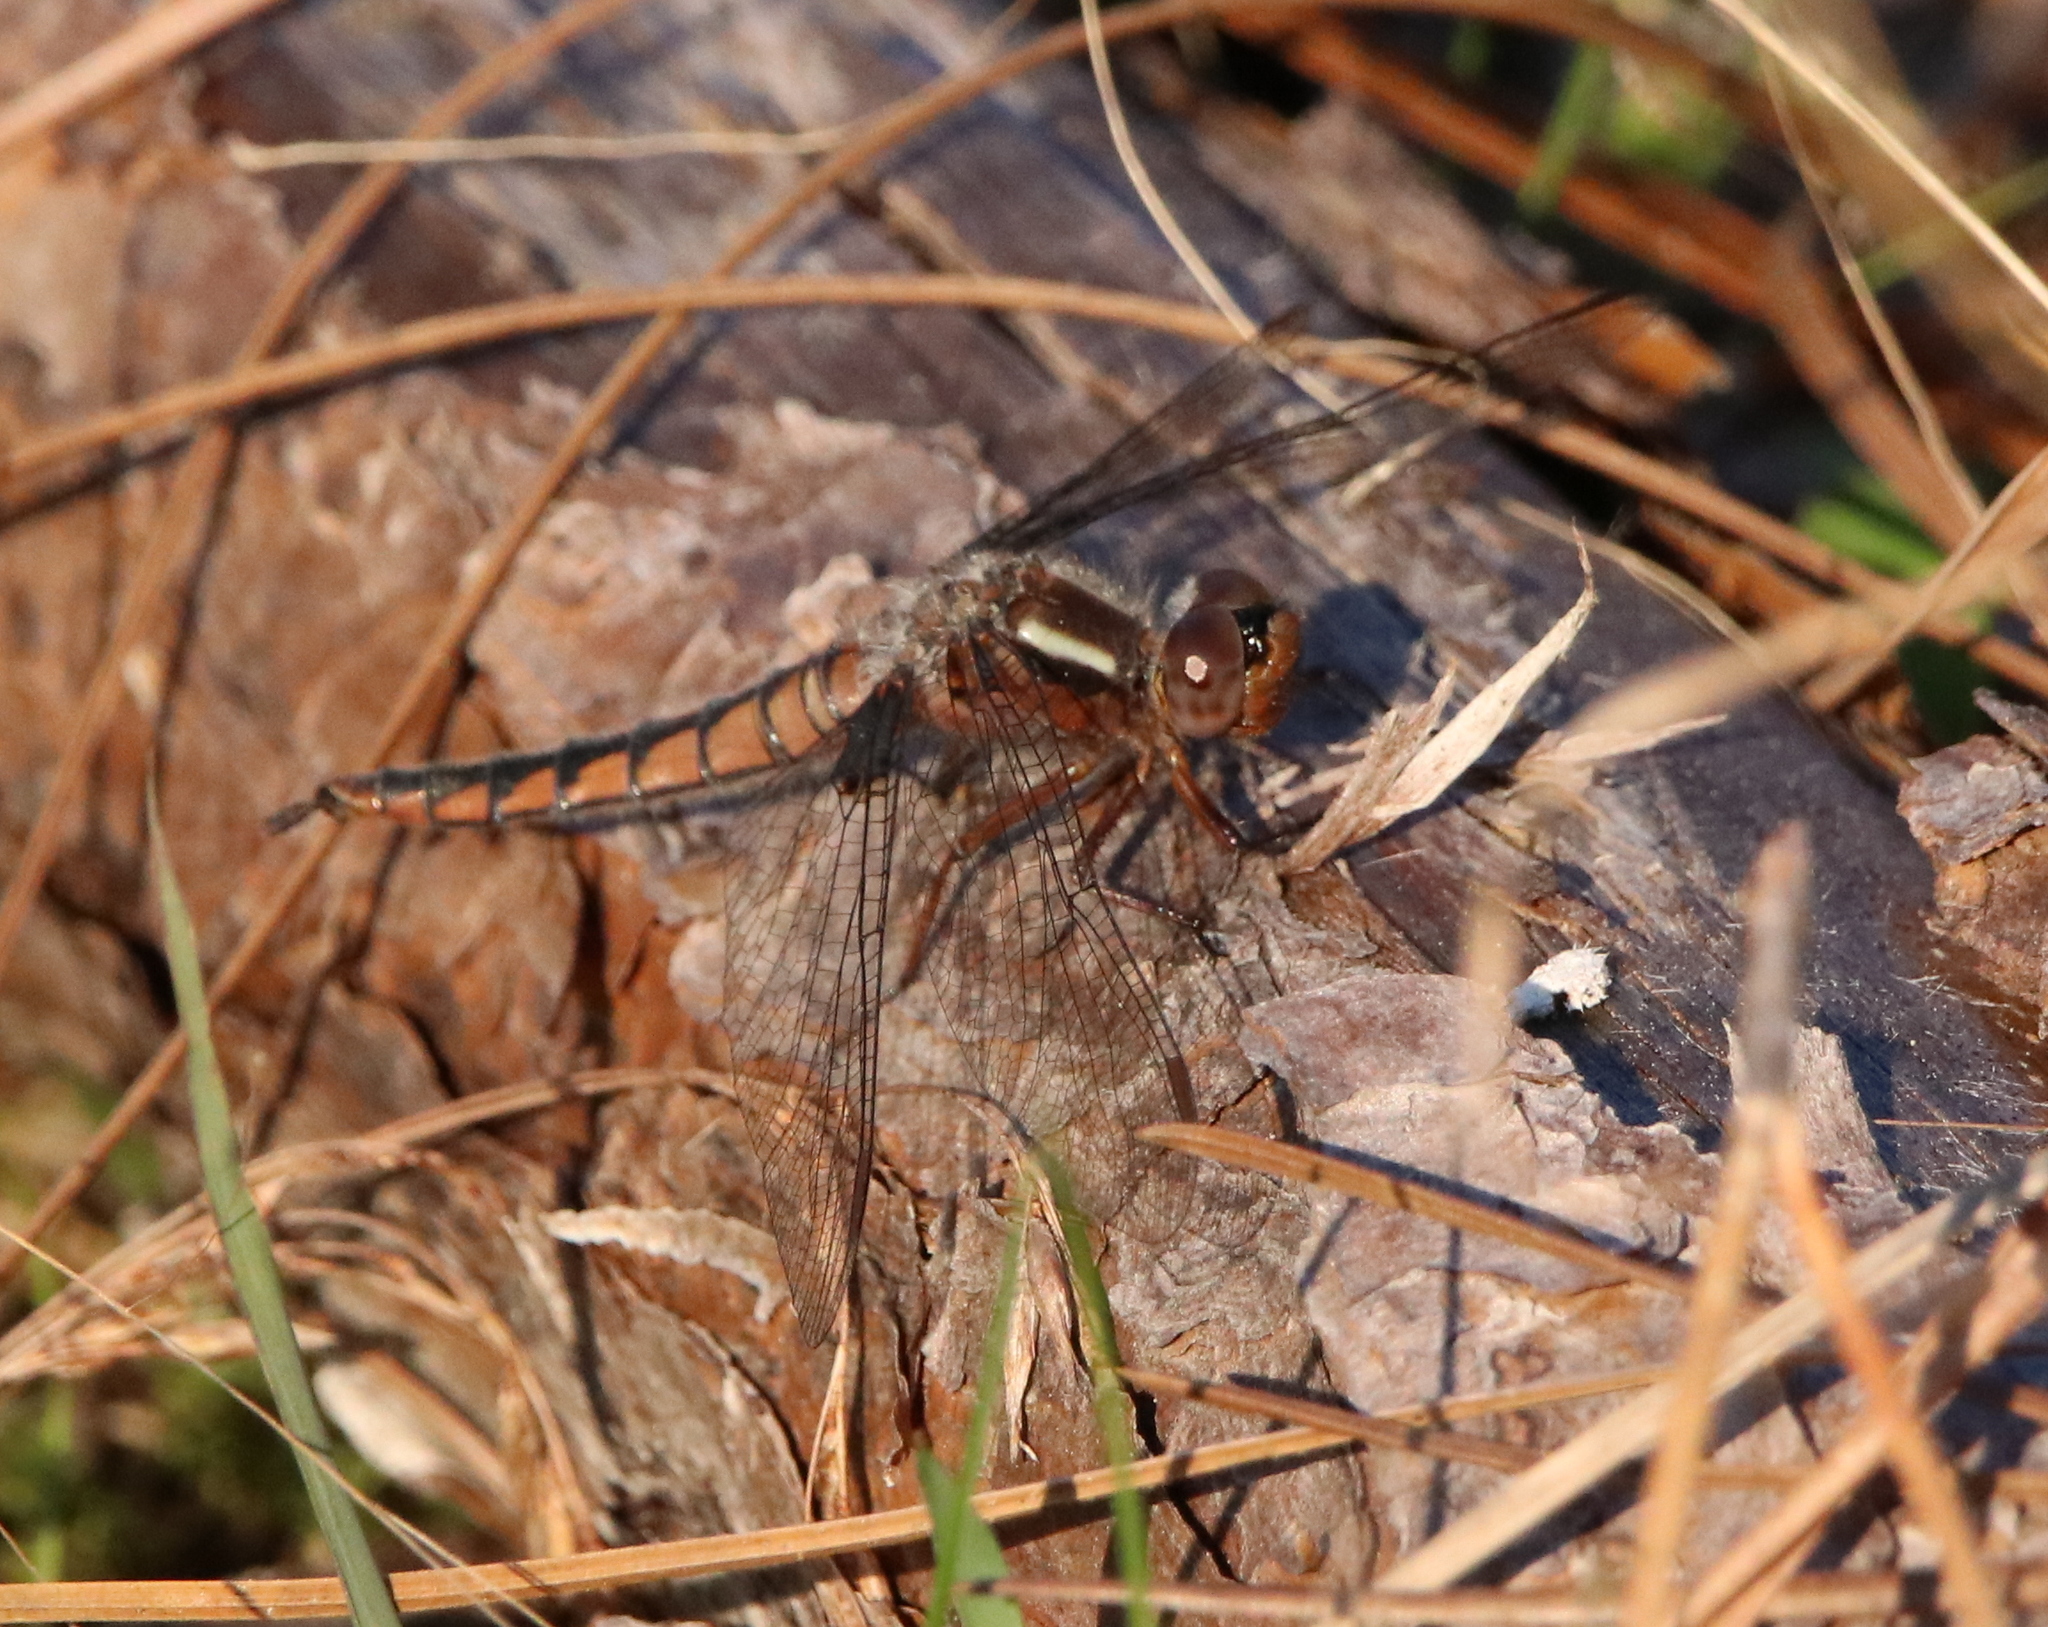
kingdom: Animalia
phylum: Arthropoda
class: Insecta
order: Odonata
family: Libellulidae
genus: Ladona
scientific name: Ladona deplanata
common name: Blue corporal
